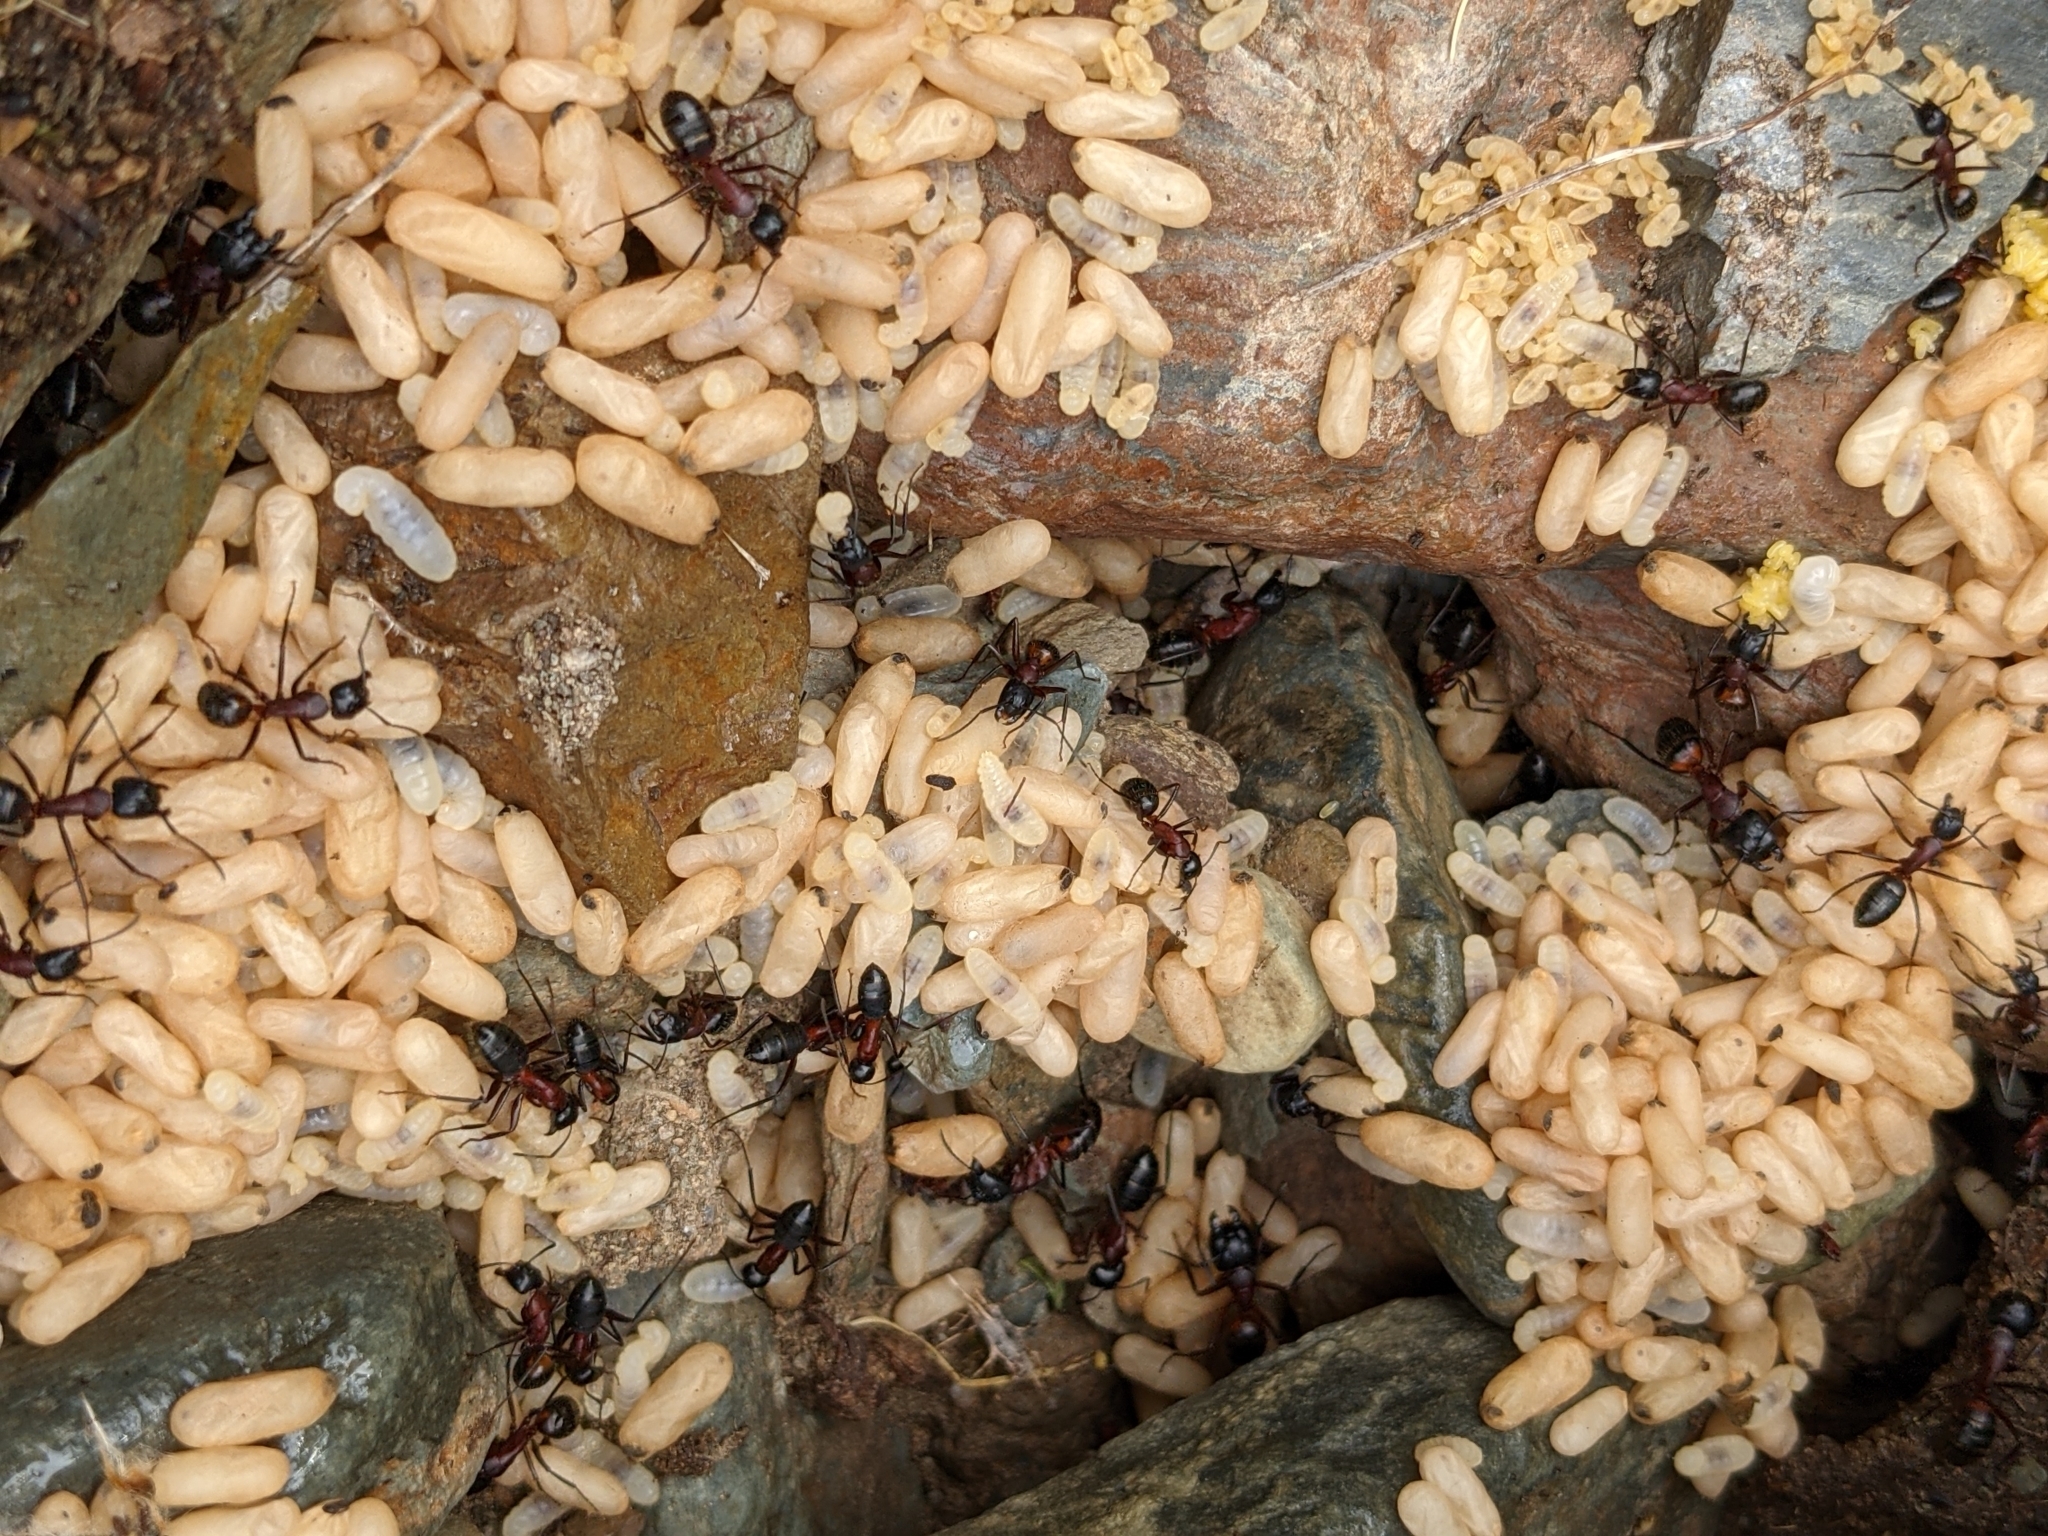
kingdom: Animalia
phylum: Arthropoda
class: Insecta
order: Hymenoptera
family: Formicidae
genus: Camponotus
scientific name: Camponotus ligniperdus
